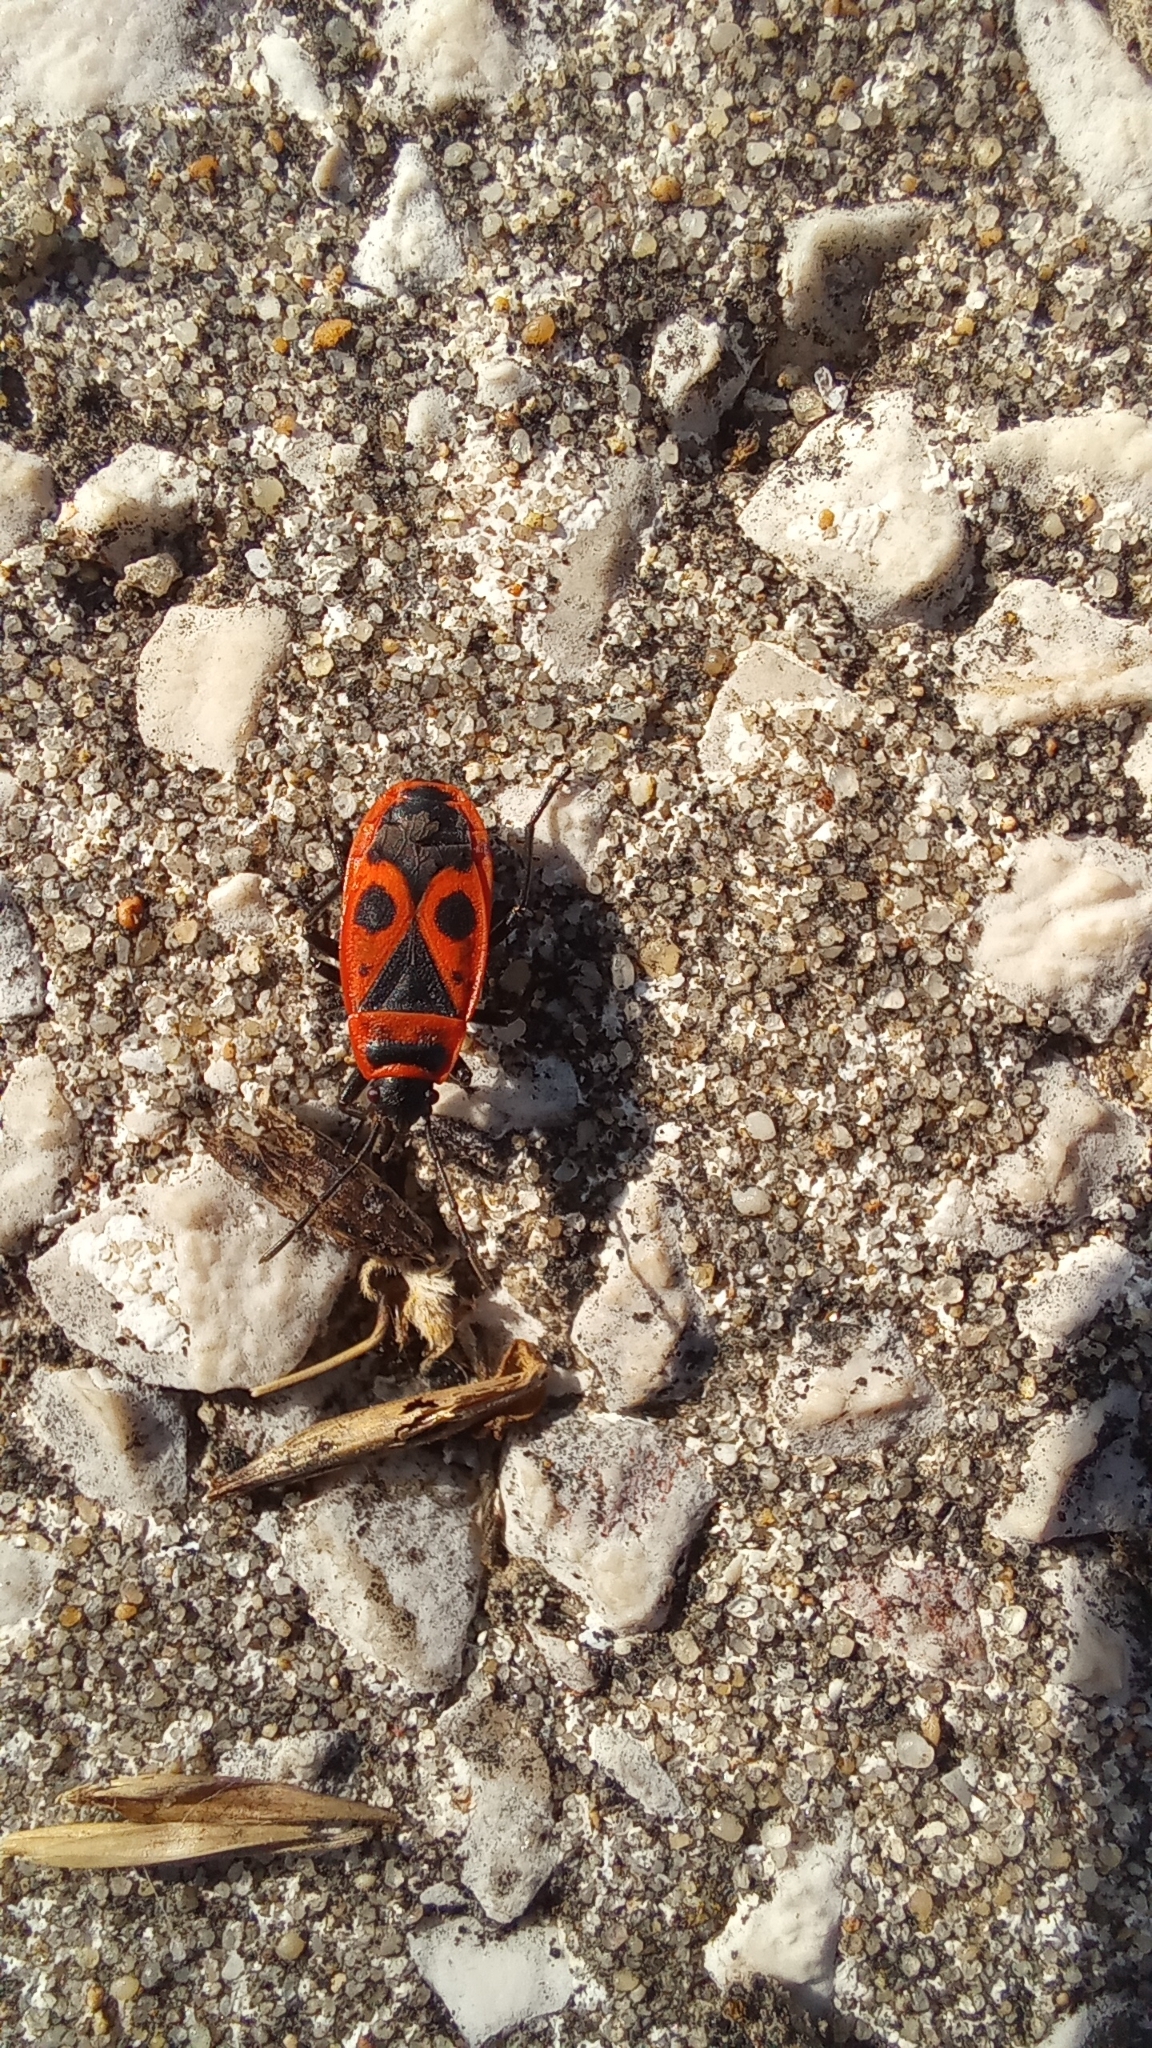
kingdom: Animalia
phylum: Arthropoda
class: Insecta
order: Hemiptera
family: Pyrrhocoridae
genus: Pyrrhocoris
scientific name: Pyrrhocoris apterus
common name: Firebug
